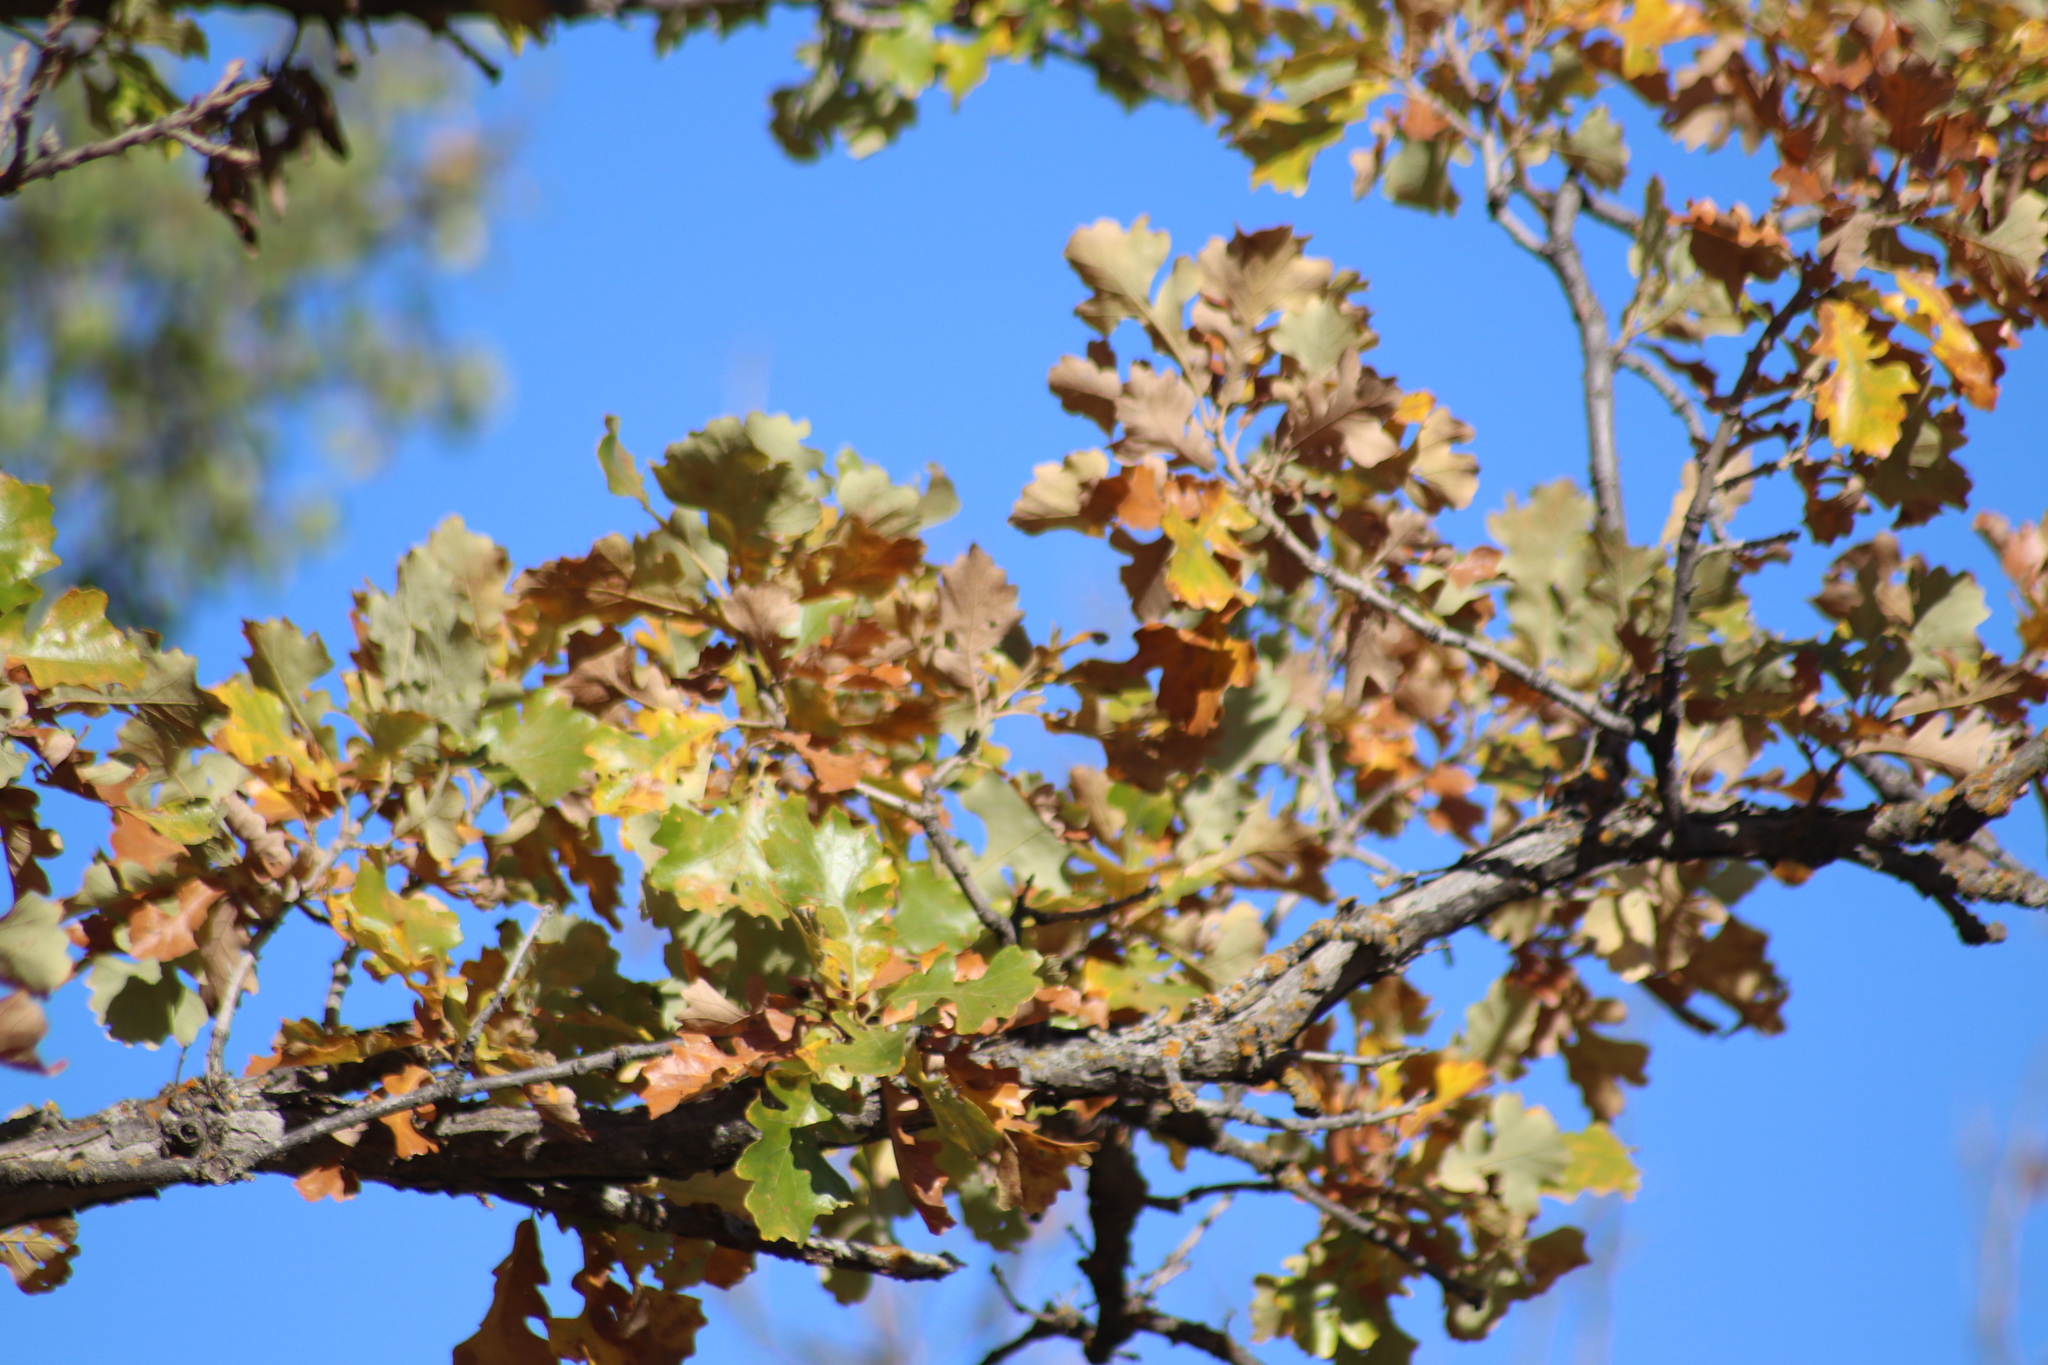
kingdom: Plantae
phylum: Tracheophyta
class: Magnoliopsida
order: Fagales
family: Fagaceae
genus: Quercus
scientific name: Quercus macrocarpa
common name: Bur oak
